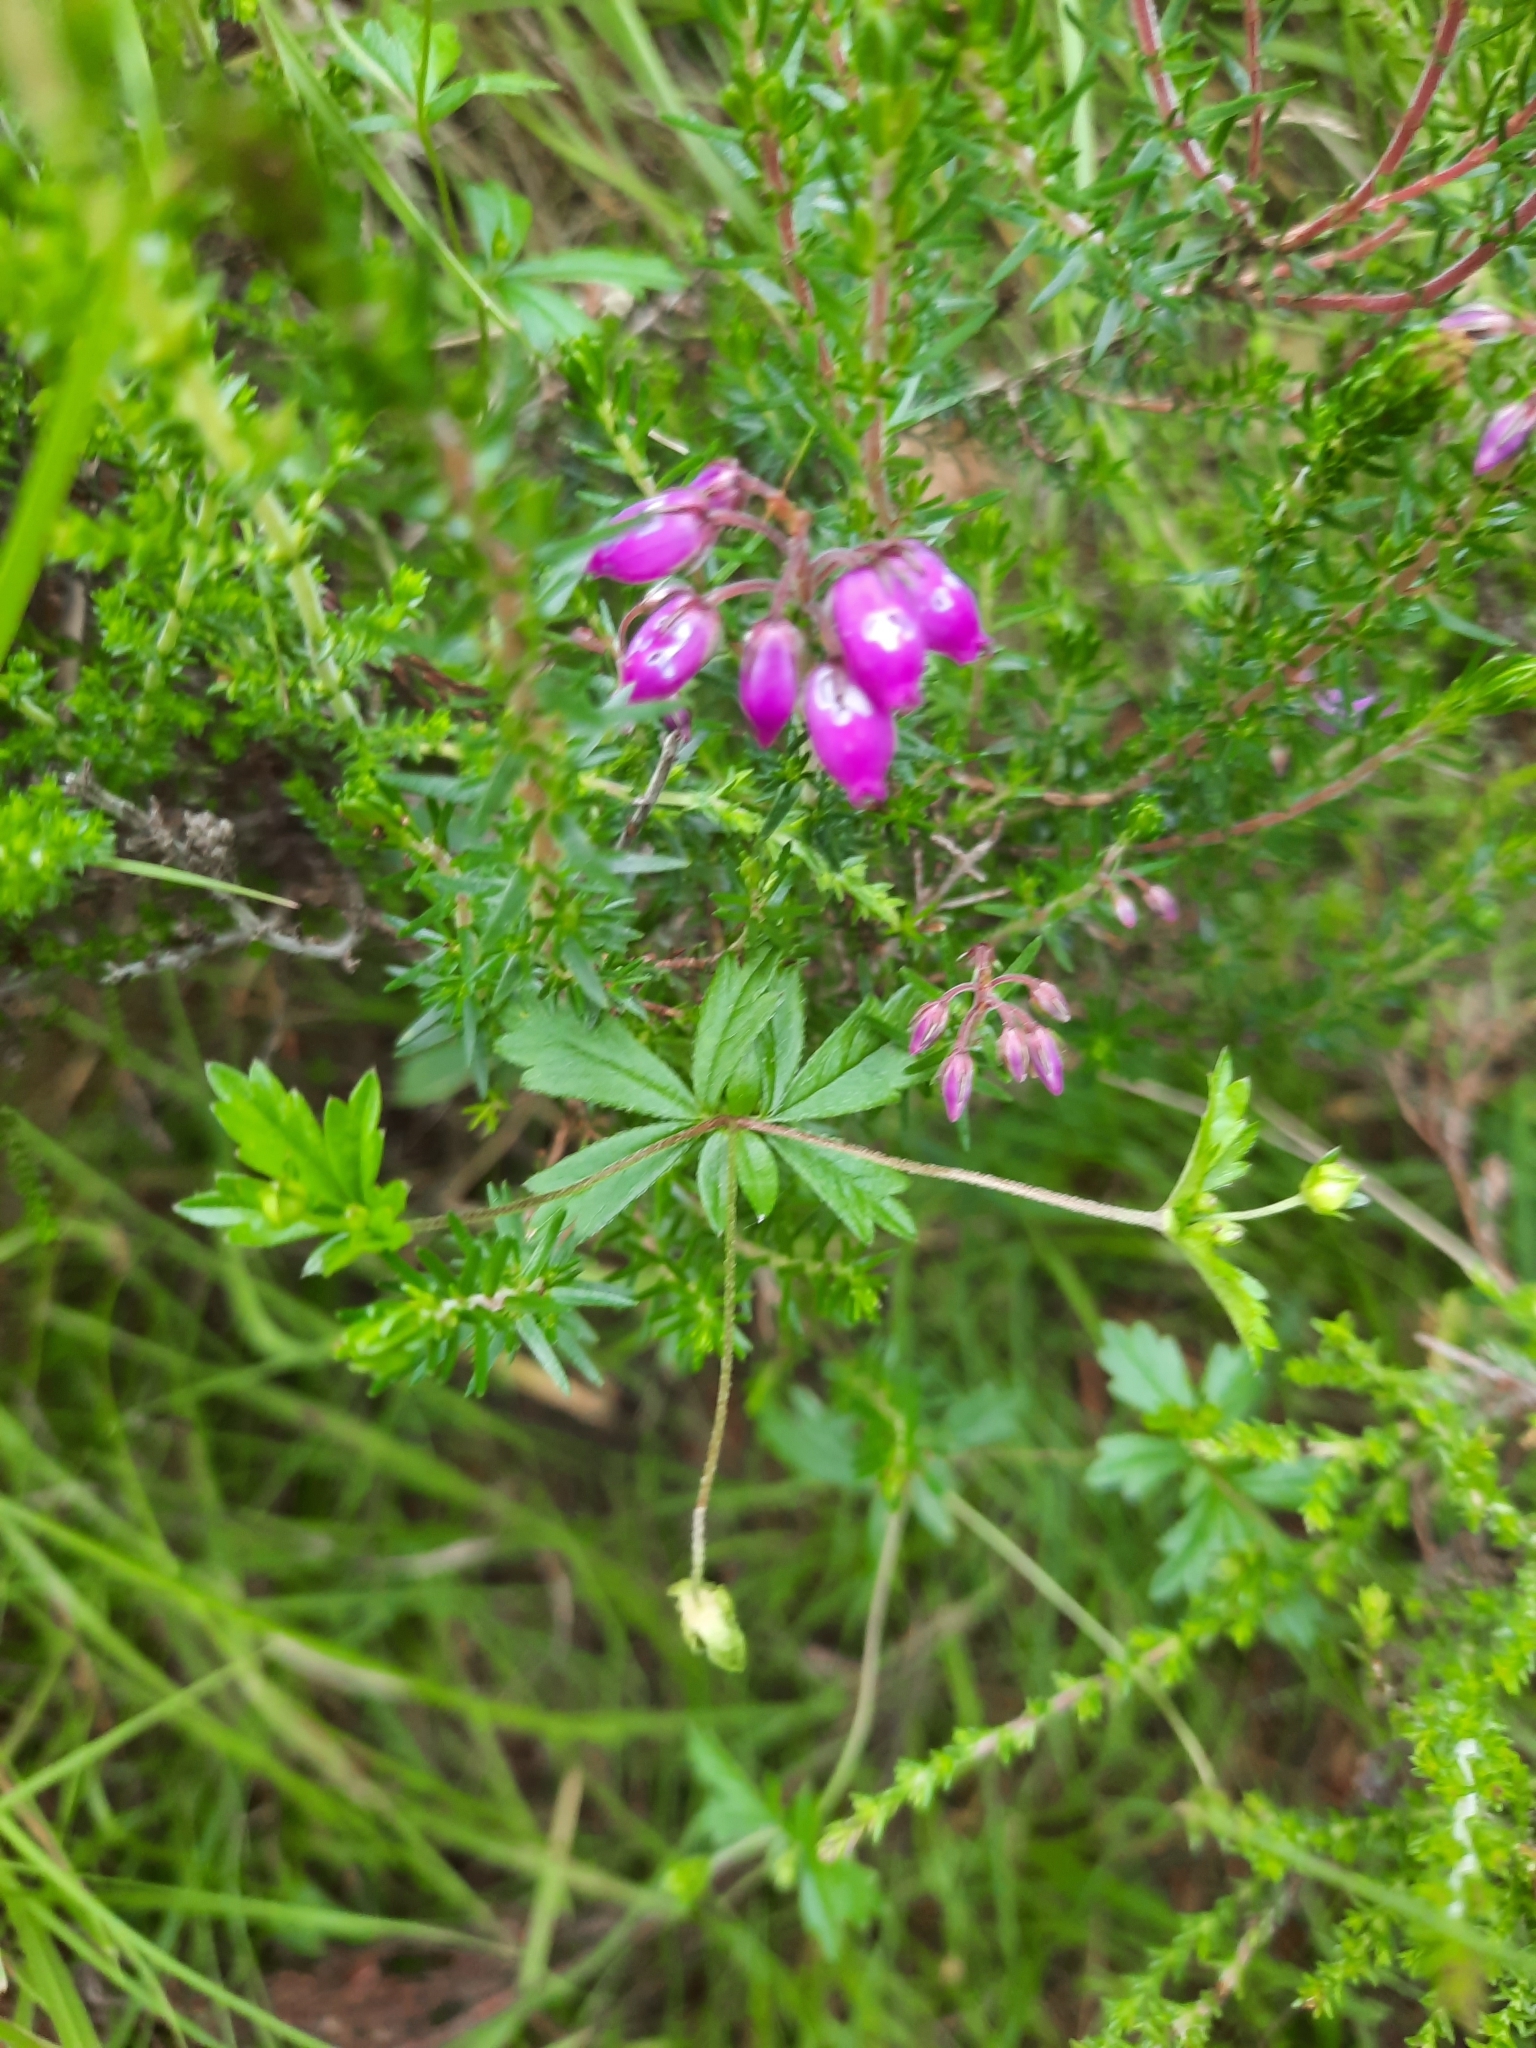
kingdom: Plantae
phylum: Tracheophyta
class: Magnoliopsida
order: Ericales
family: Ericaceae
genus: Erica
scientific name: Erica cinerea
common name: Bell heather
